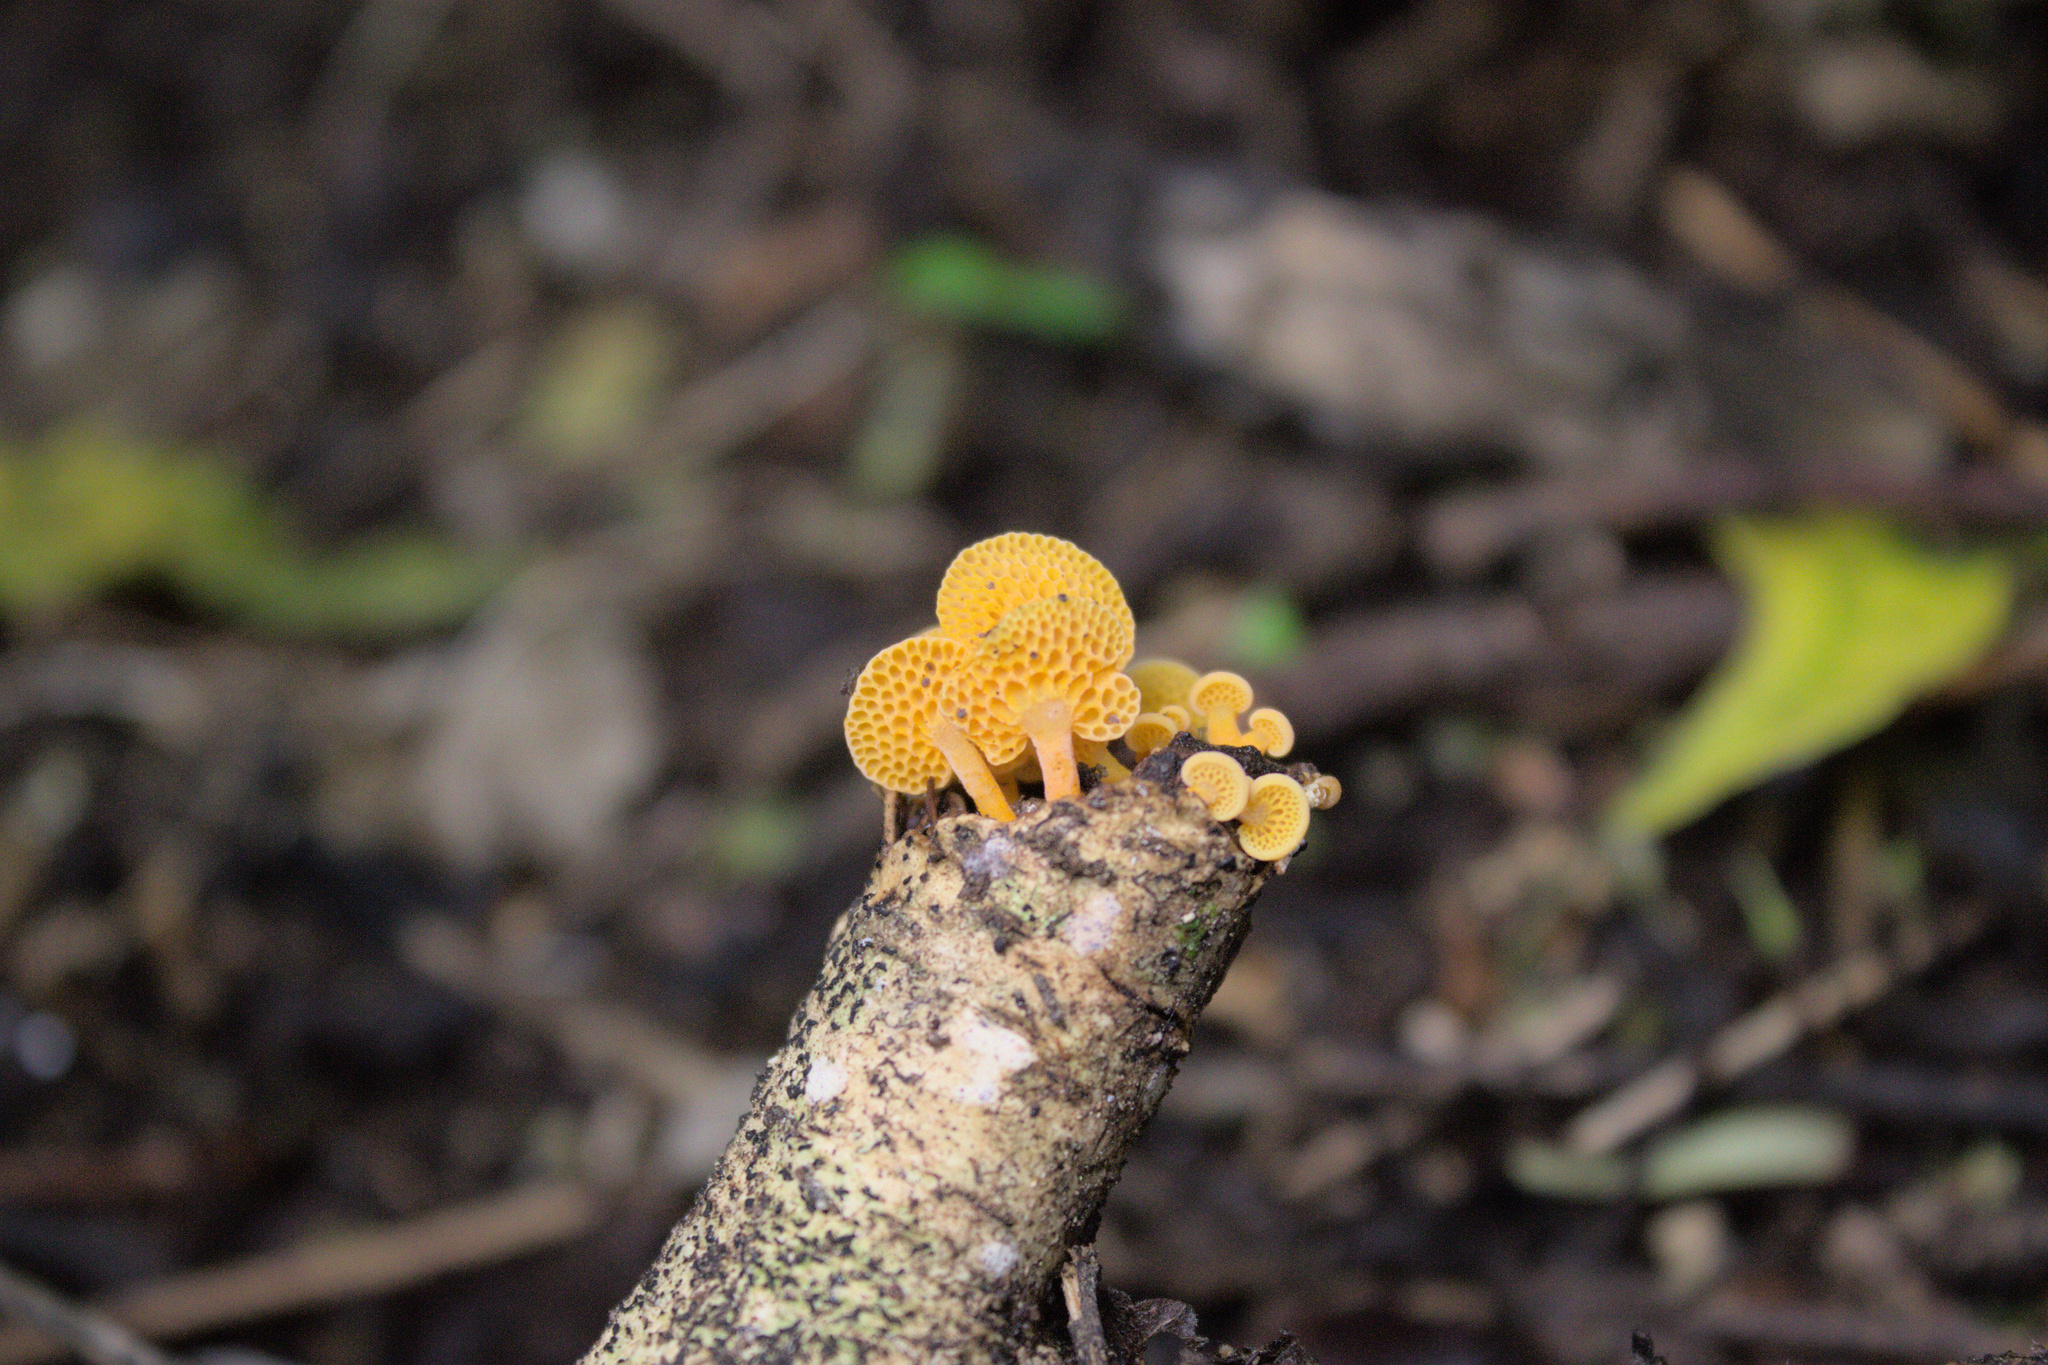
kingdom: Fungi
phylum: Basidiomycota
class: Agaricomycetes
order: Agaricales
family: Mycenaceae
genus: Favolaschia
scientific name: Favolaschia claudopus
